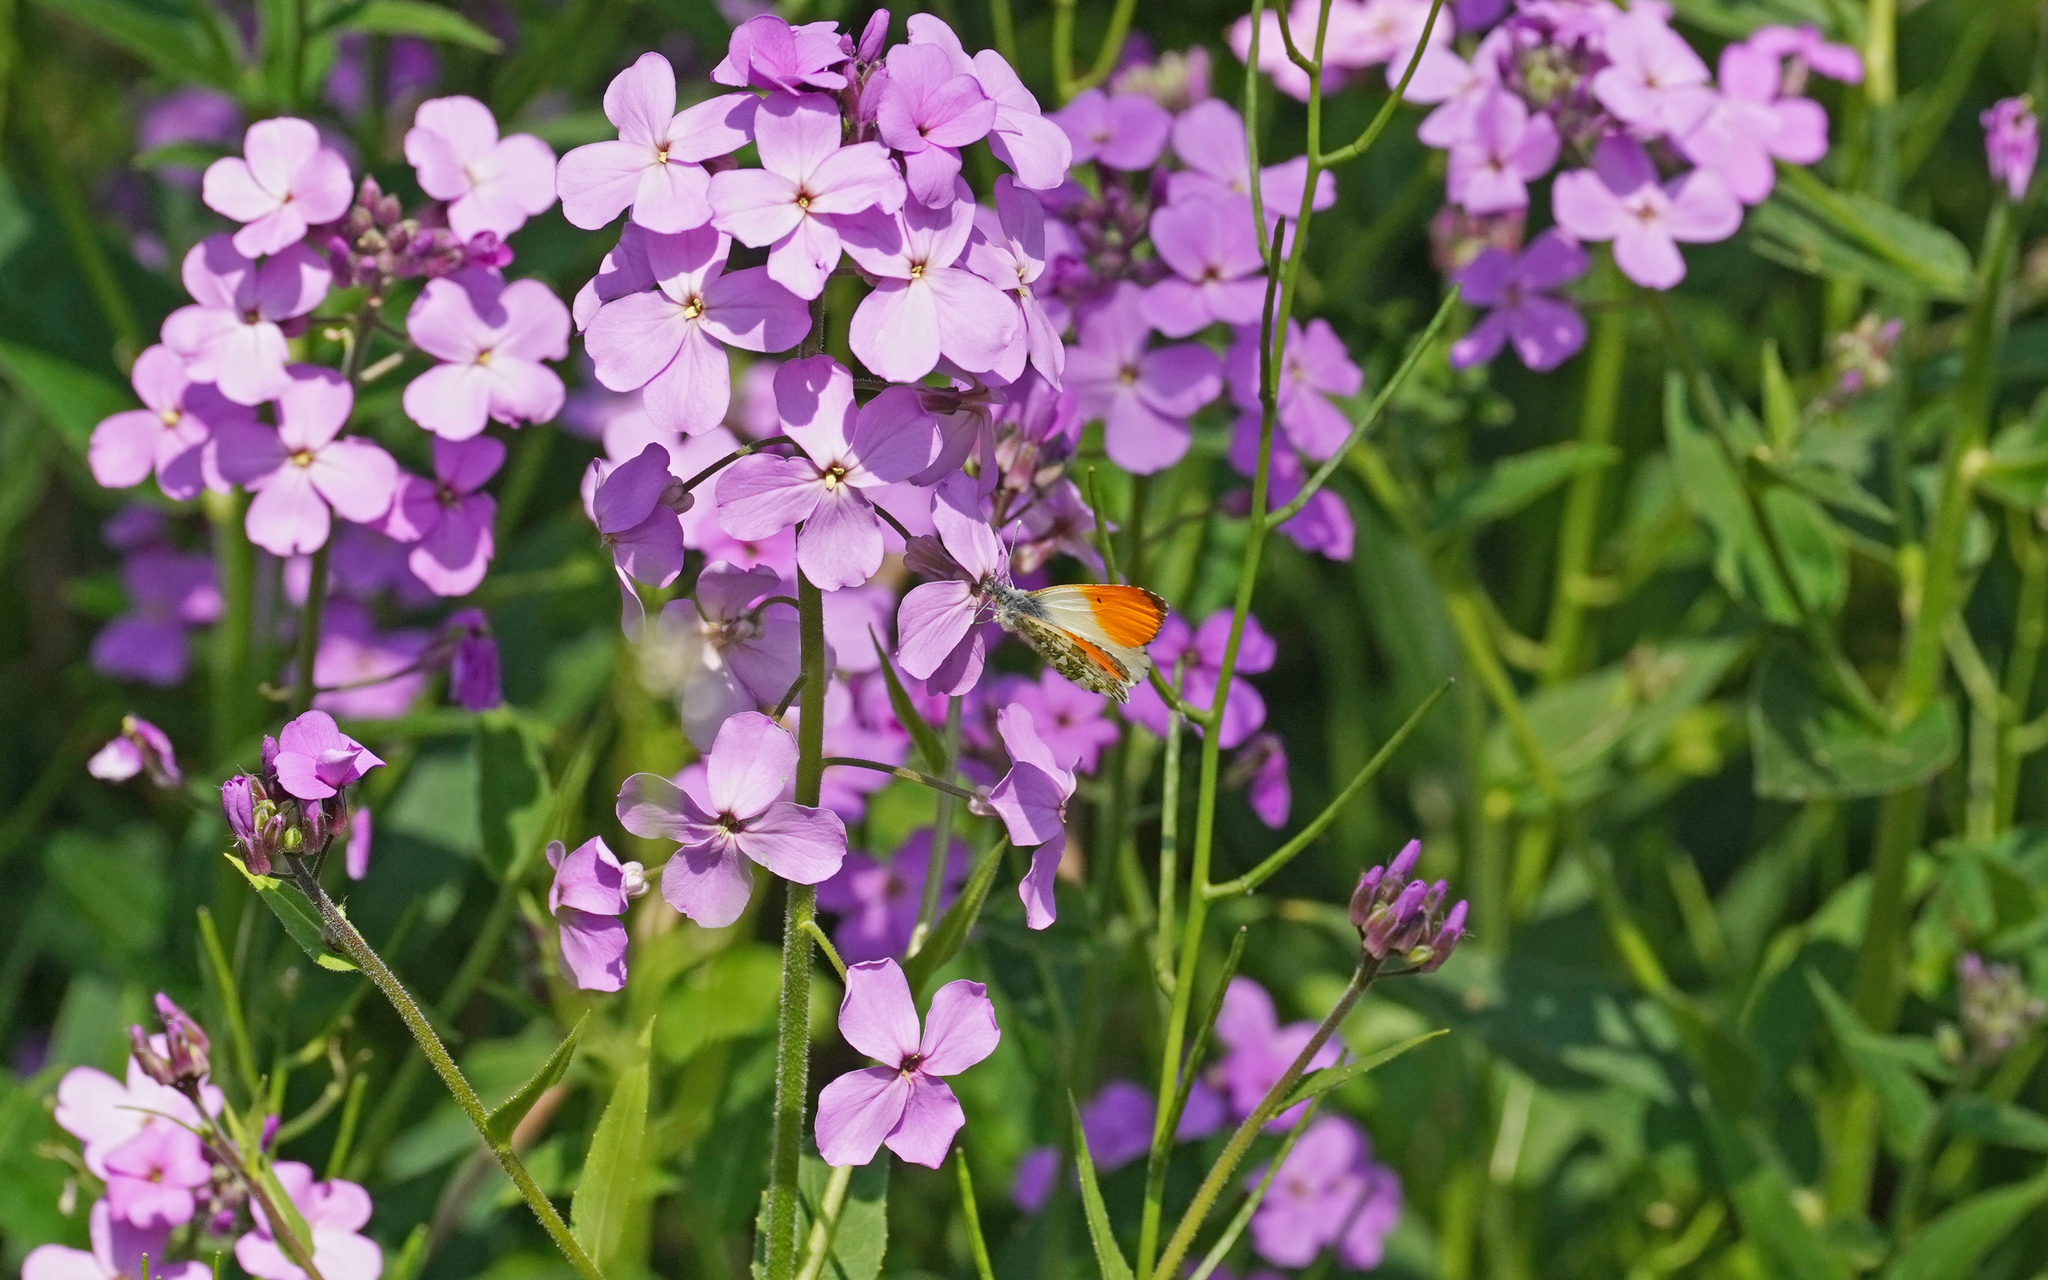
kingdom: Animalia
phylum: Arthropoda
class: Insecta
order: Lepidoptera
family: Pieridae
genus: Anthocharis
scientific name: Anthocharis cardamines
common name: Orange-tip
